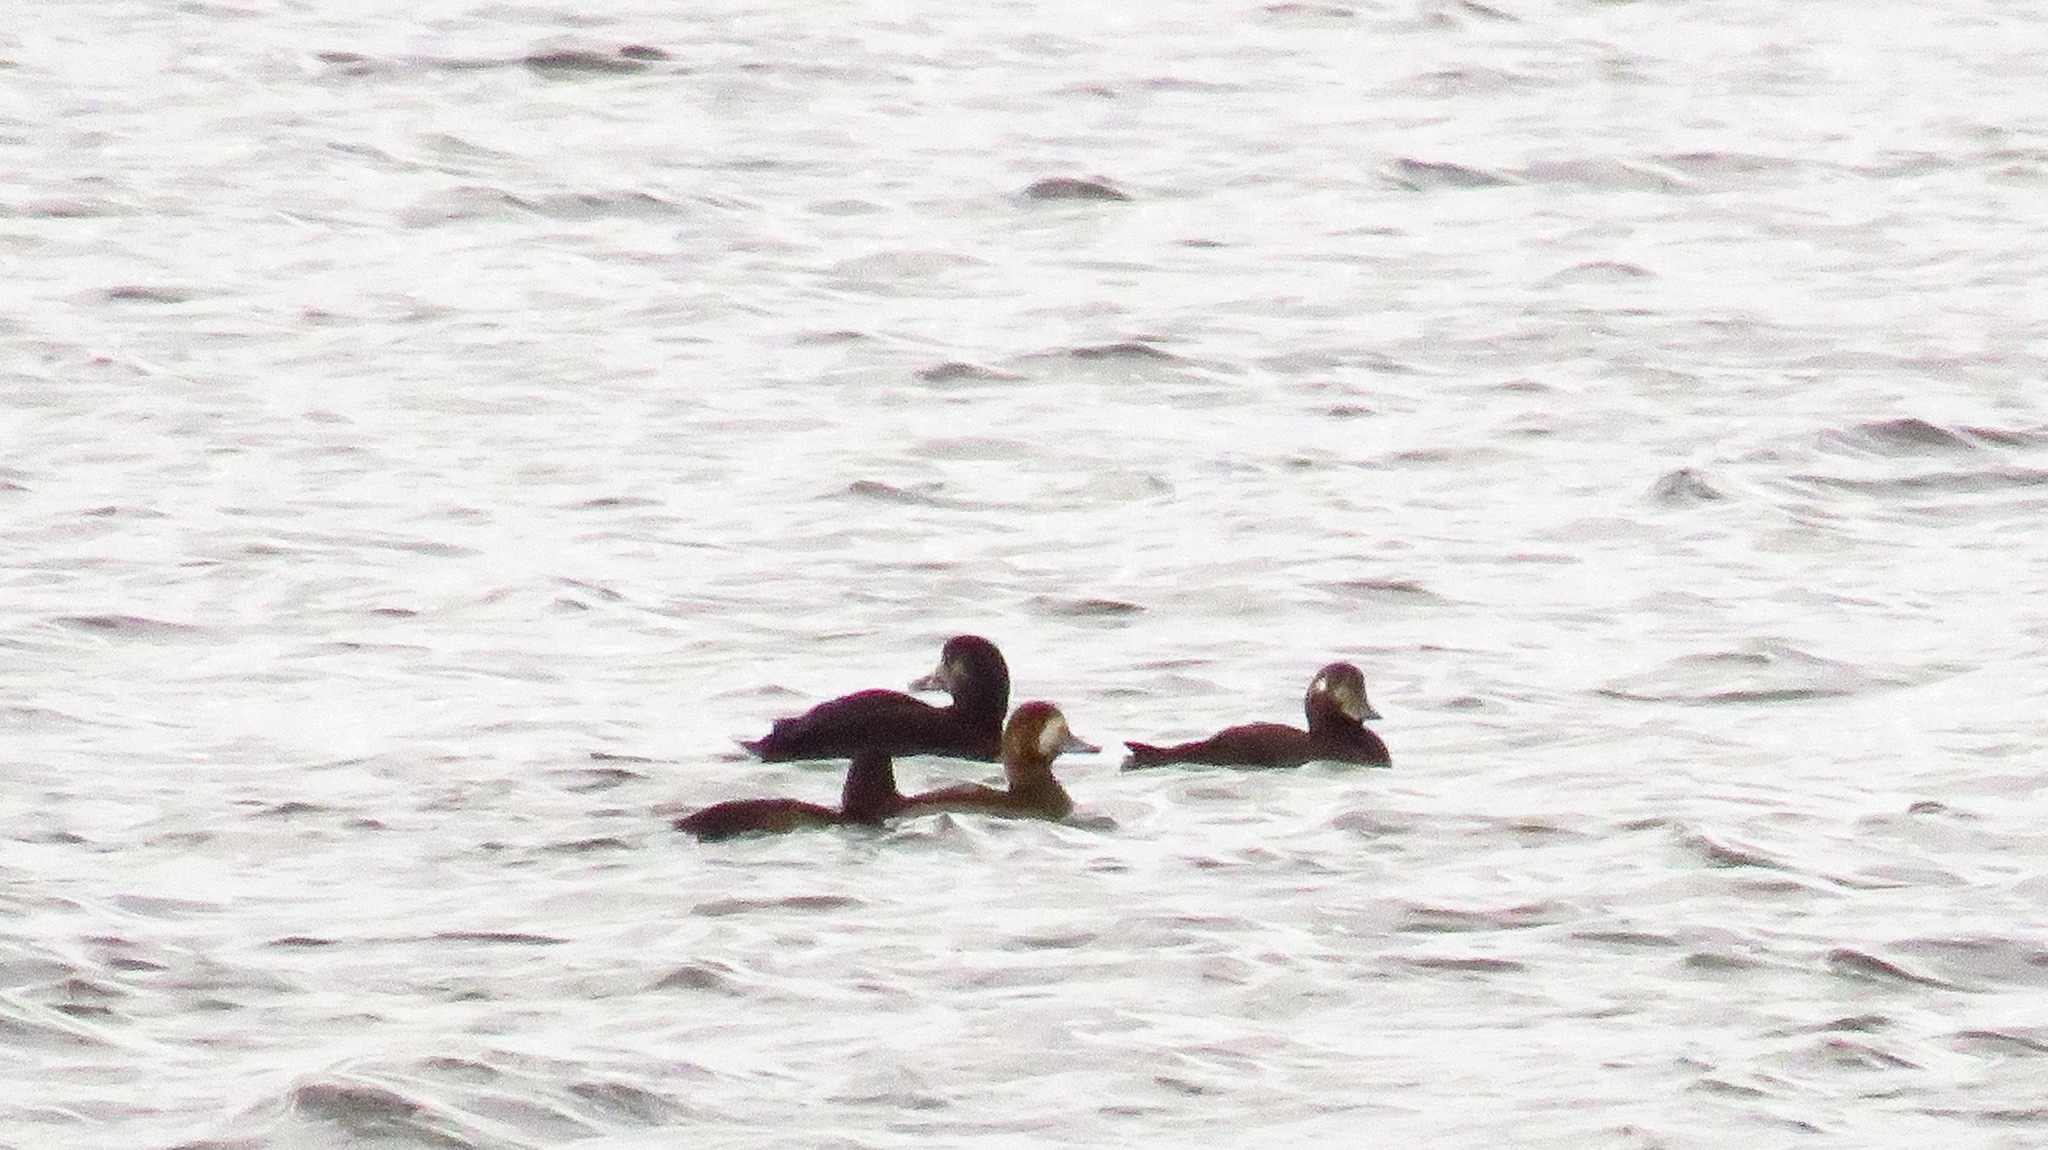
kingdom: Animalia
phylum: Chordata
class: Aves
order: Anseriformes
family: Anatidae
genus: Aythya
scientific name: Aythya marila
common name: Greater scaup
